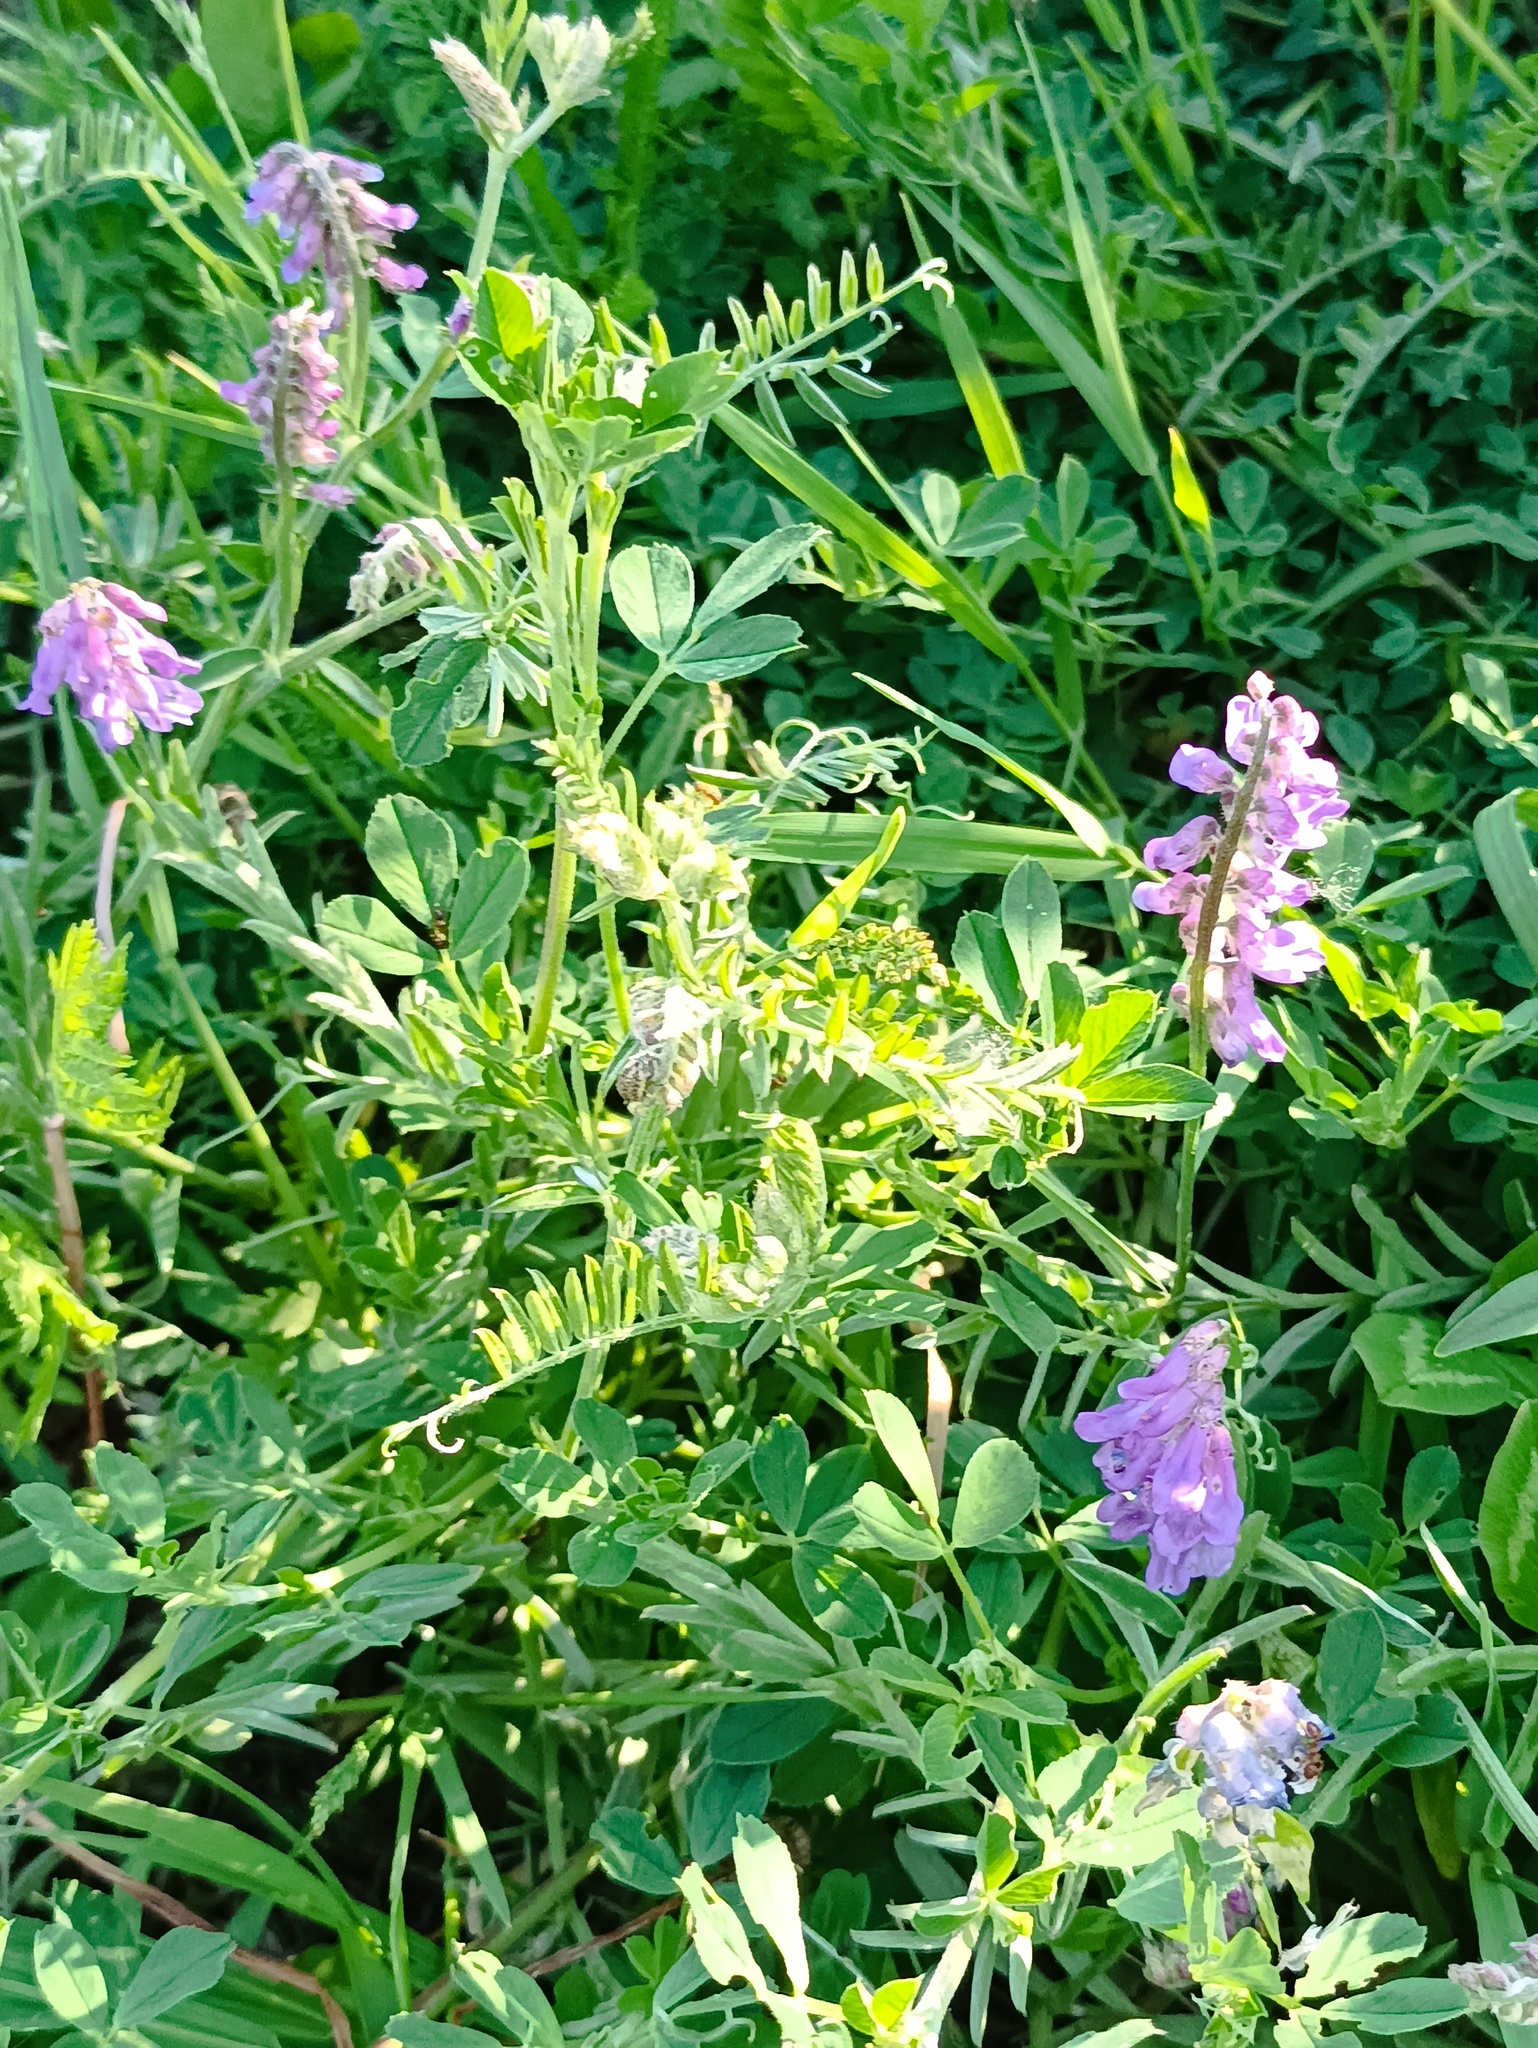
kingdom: Plantae
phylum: Tracheophyta
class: Magnoliopsida
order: Fabales
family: Fabaceae
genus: Vicia
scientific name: Vicia cracca
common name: Bird vetch
